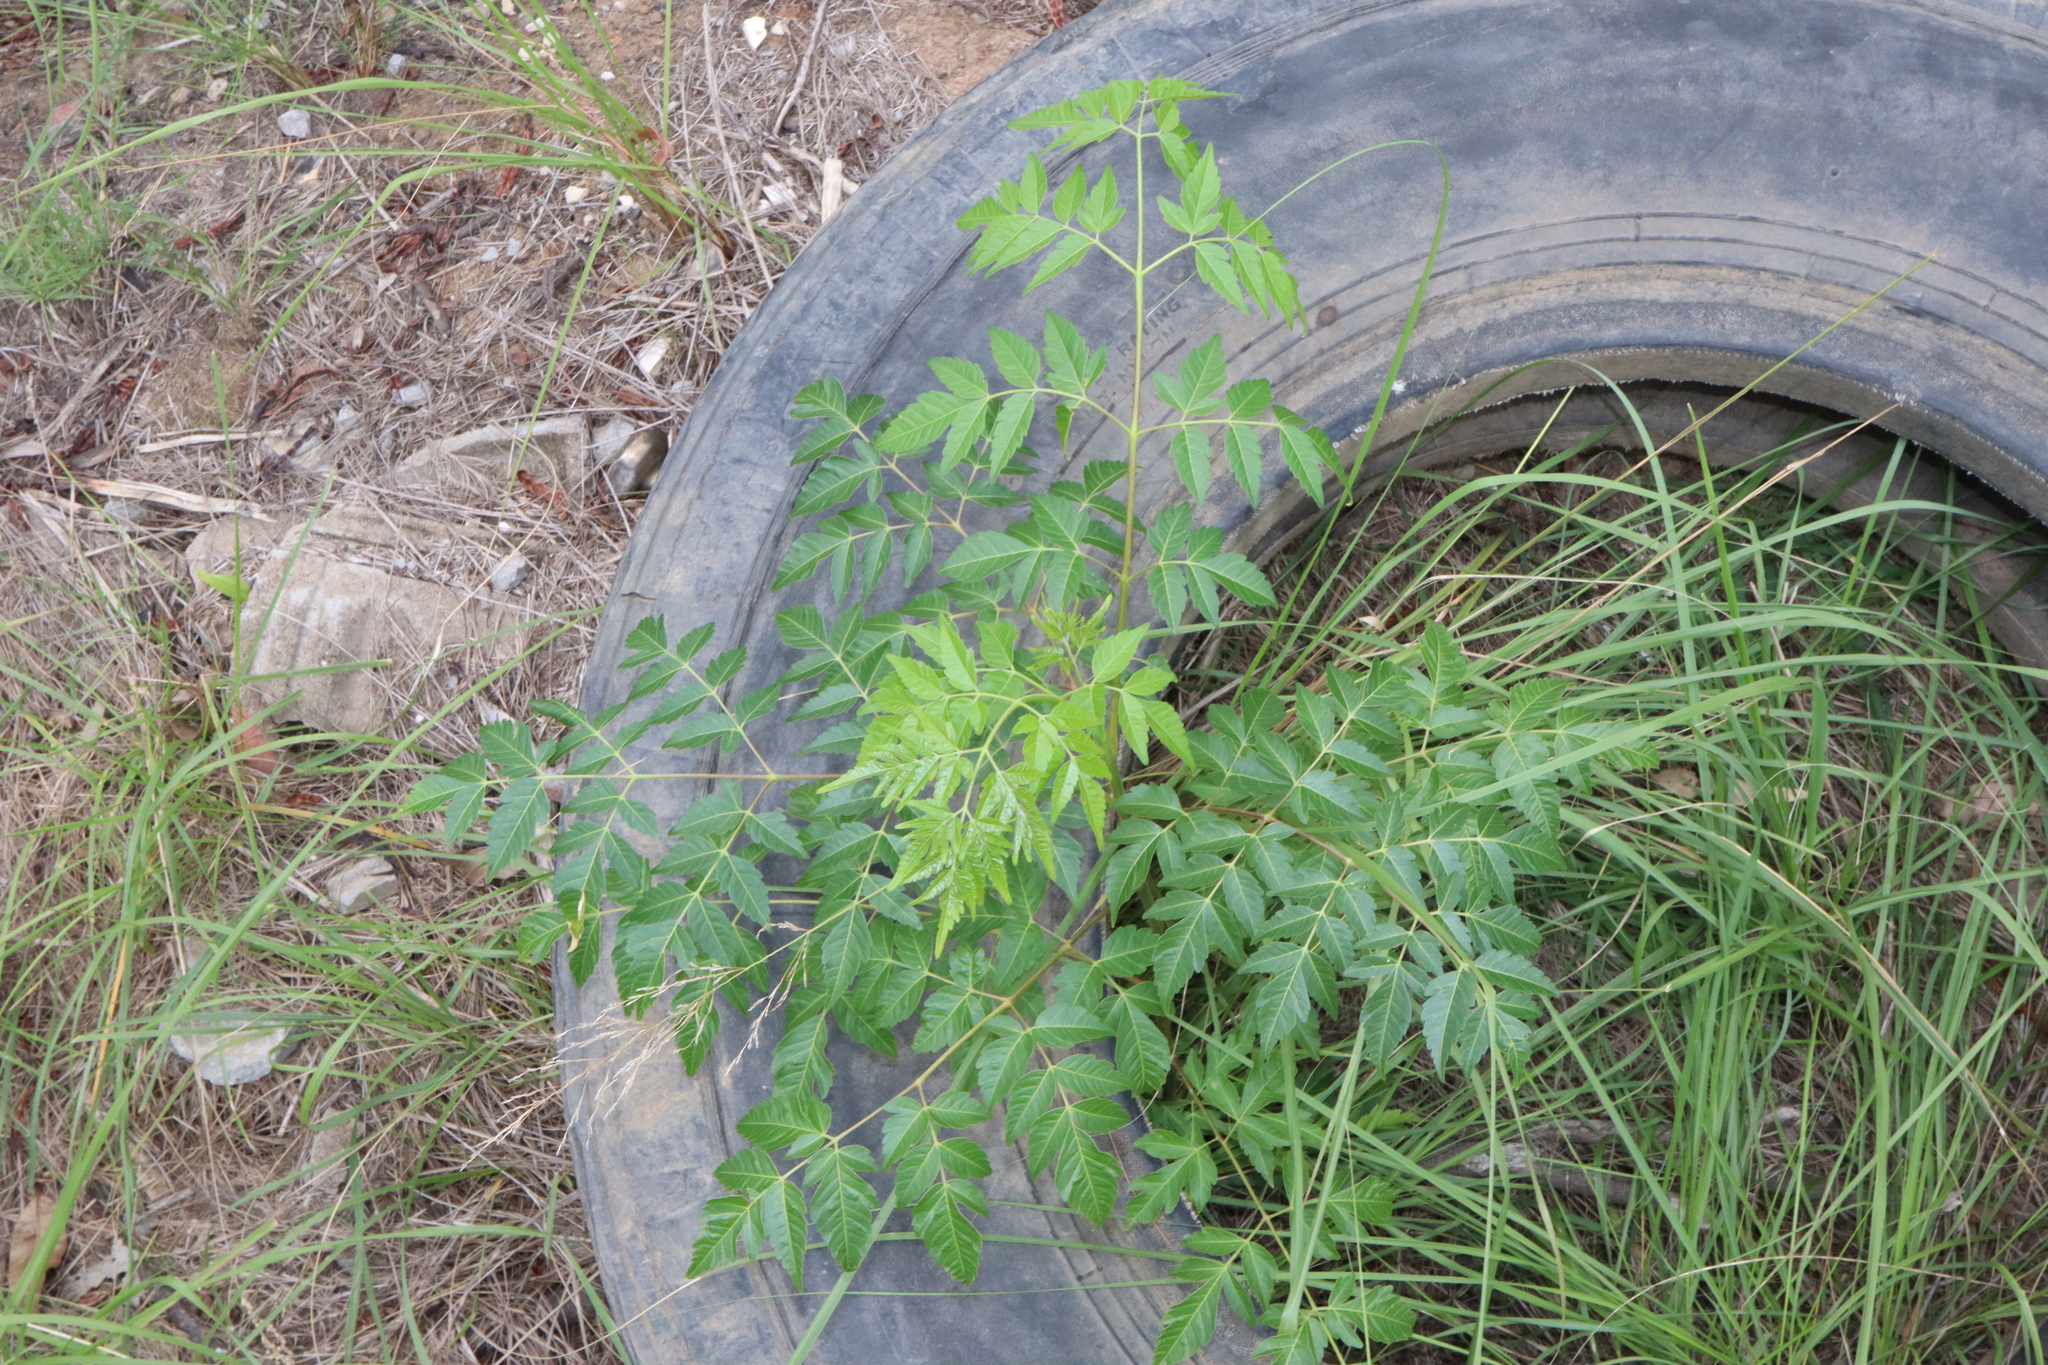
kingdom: Plantae
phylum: Tracheophyta
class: Magnoliopsida
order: Sapindales
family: Meliaceae
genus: Melia
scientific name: Melia azedarach
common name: Chinaberrytree
